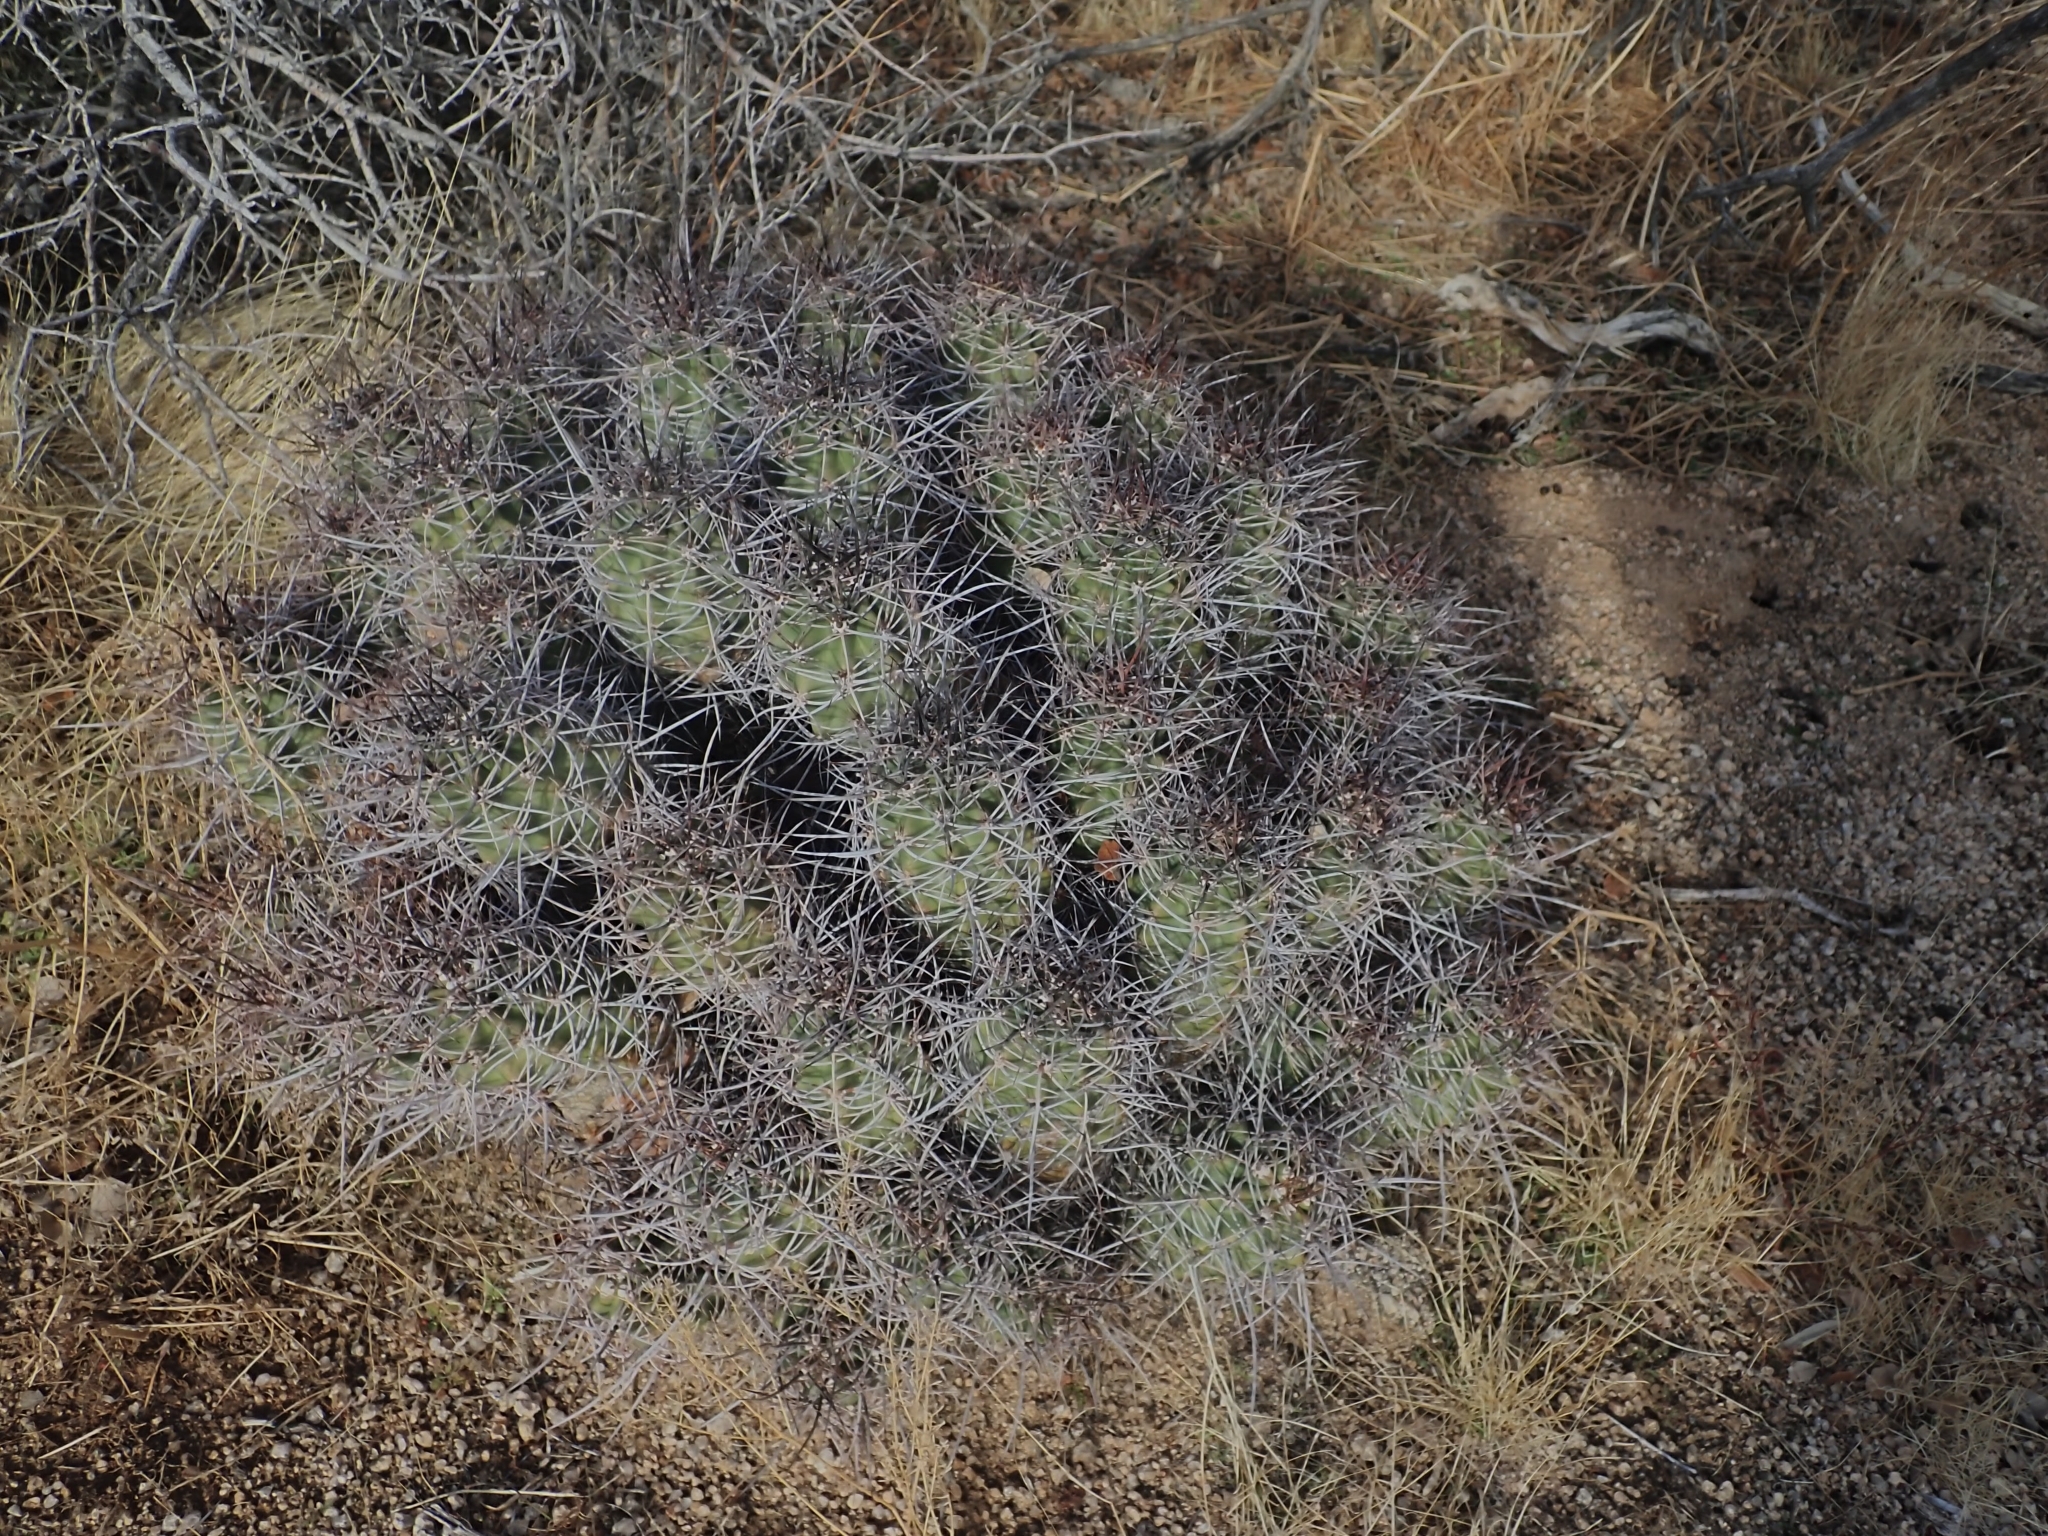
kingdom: Plantae
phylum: Tracheophyta
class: Magnoliopsida
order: Caryophyllales
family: Cactaceae
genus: Echinocereus
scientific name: Echinocereus triglochidiatus
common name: Claretcup hedgehog
